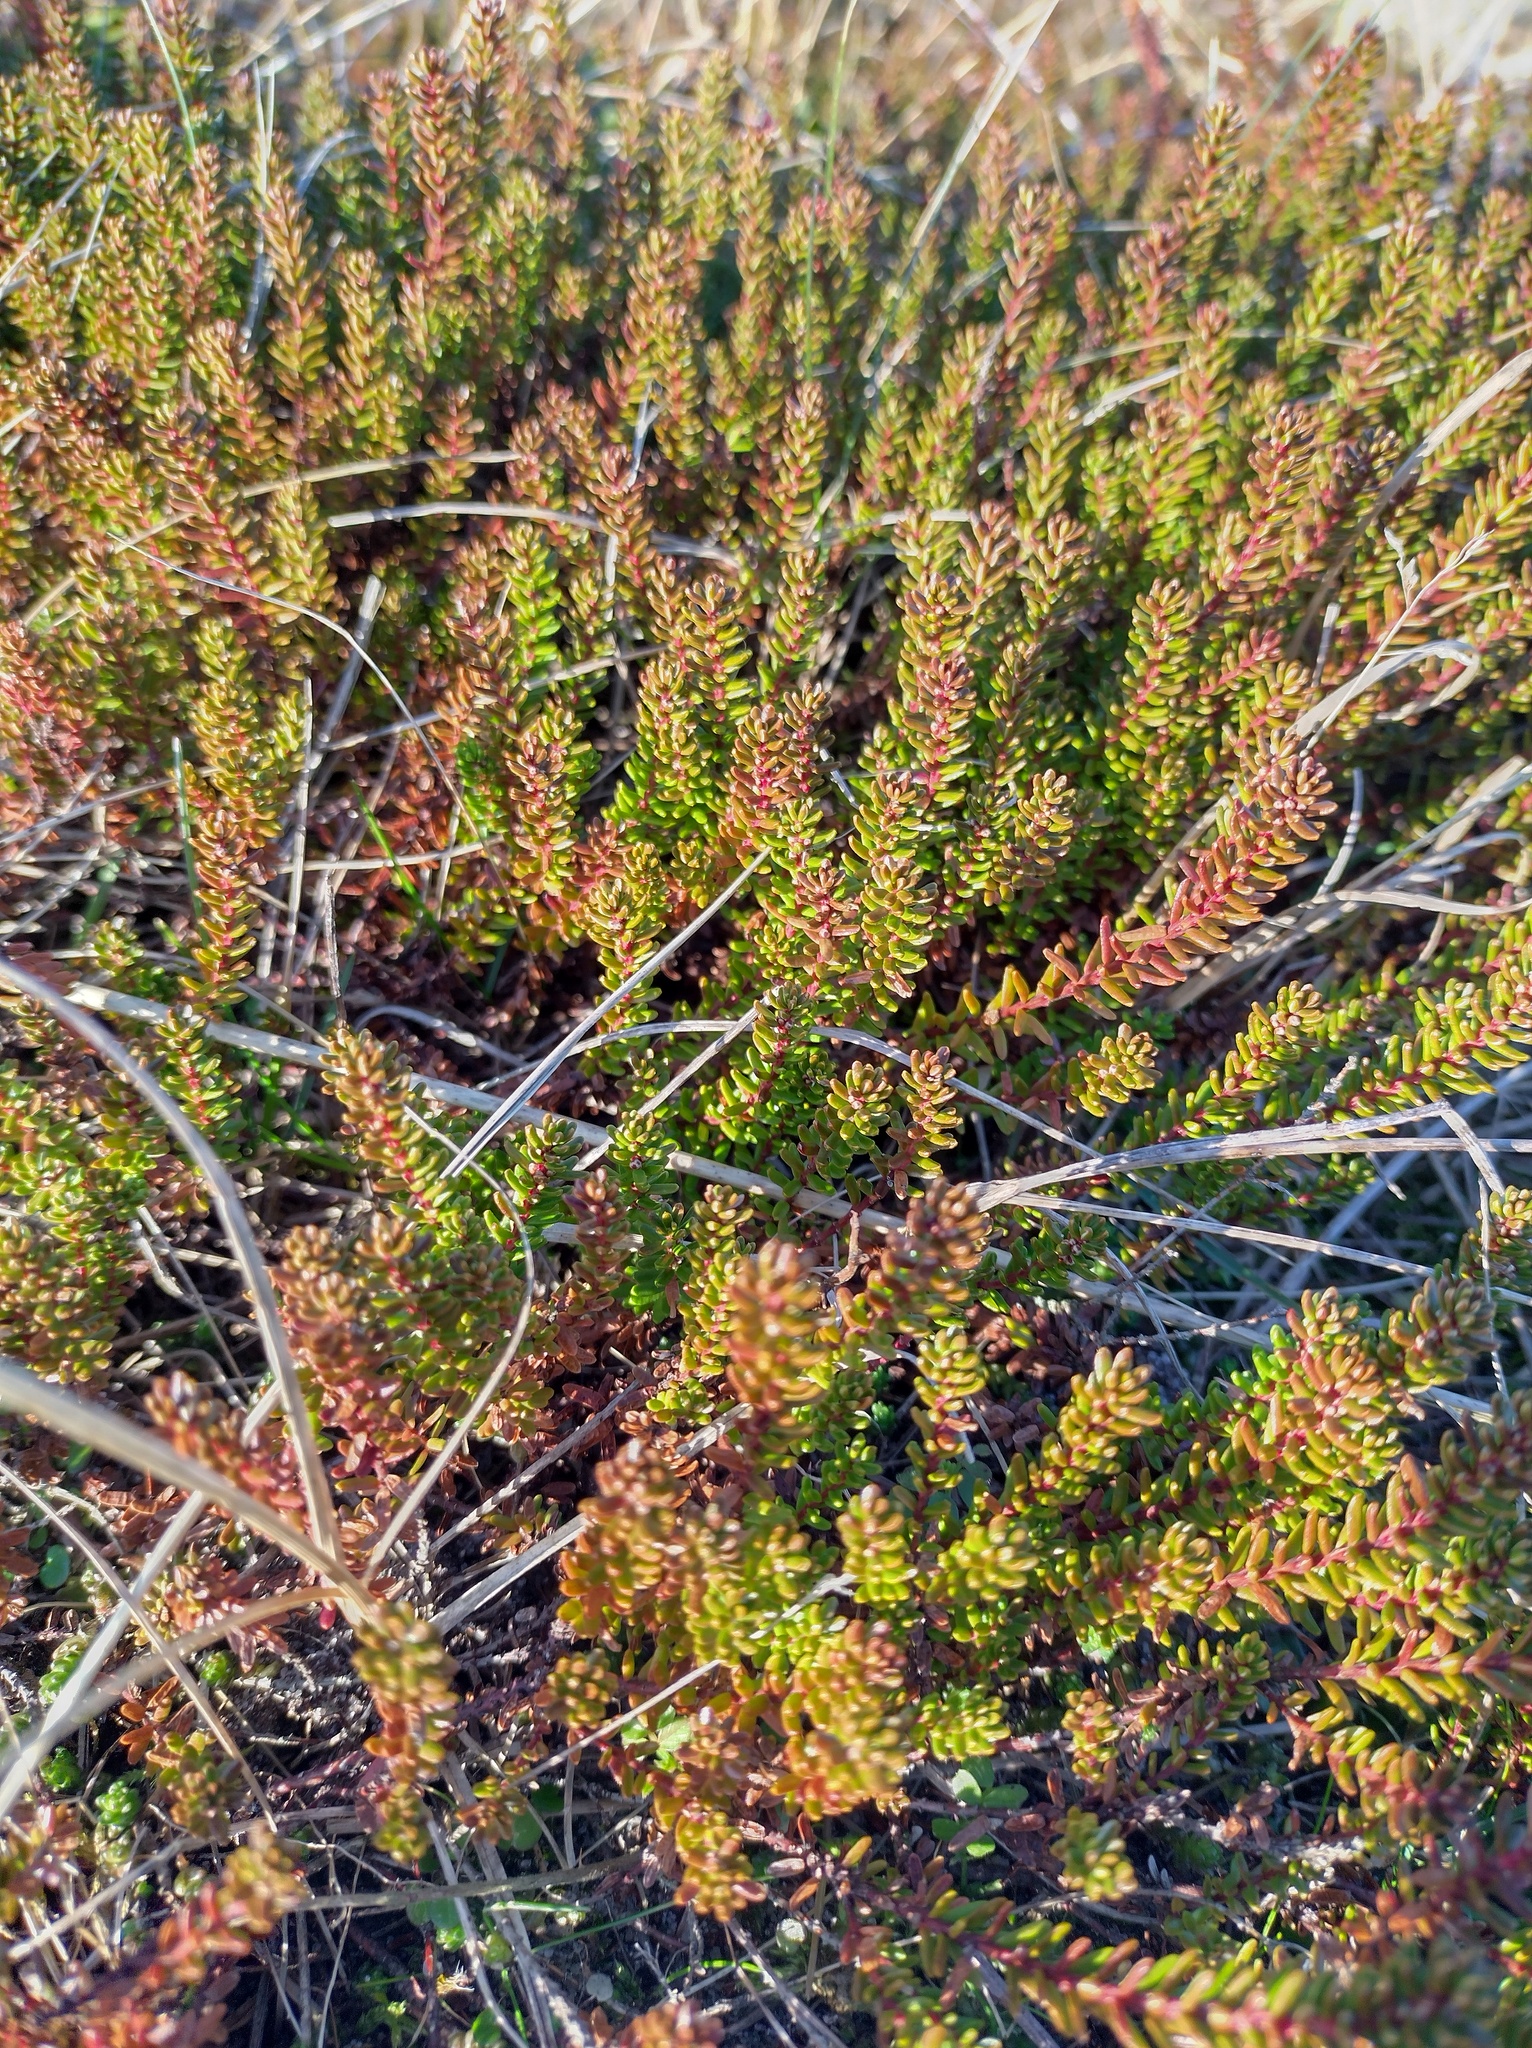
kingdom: Plantae
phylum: Tracheophyta
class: Magnoliopsida
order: Ericales
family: Ericaceae
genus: Empetrum
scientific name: Empetrum nigrum
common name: Black crowberry
